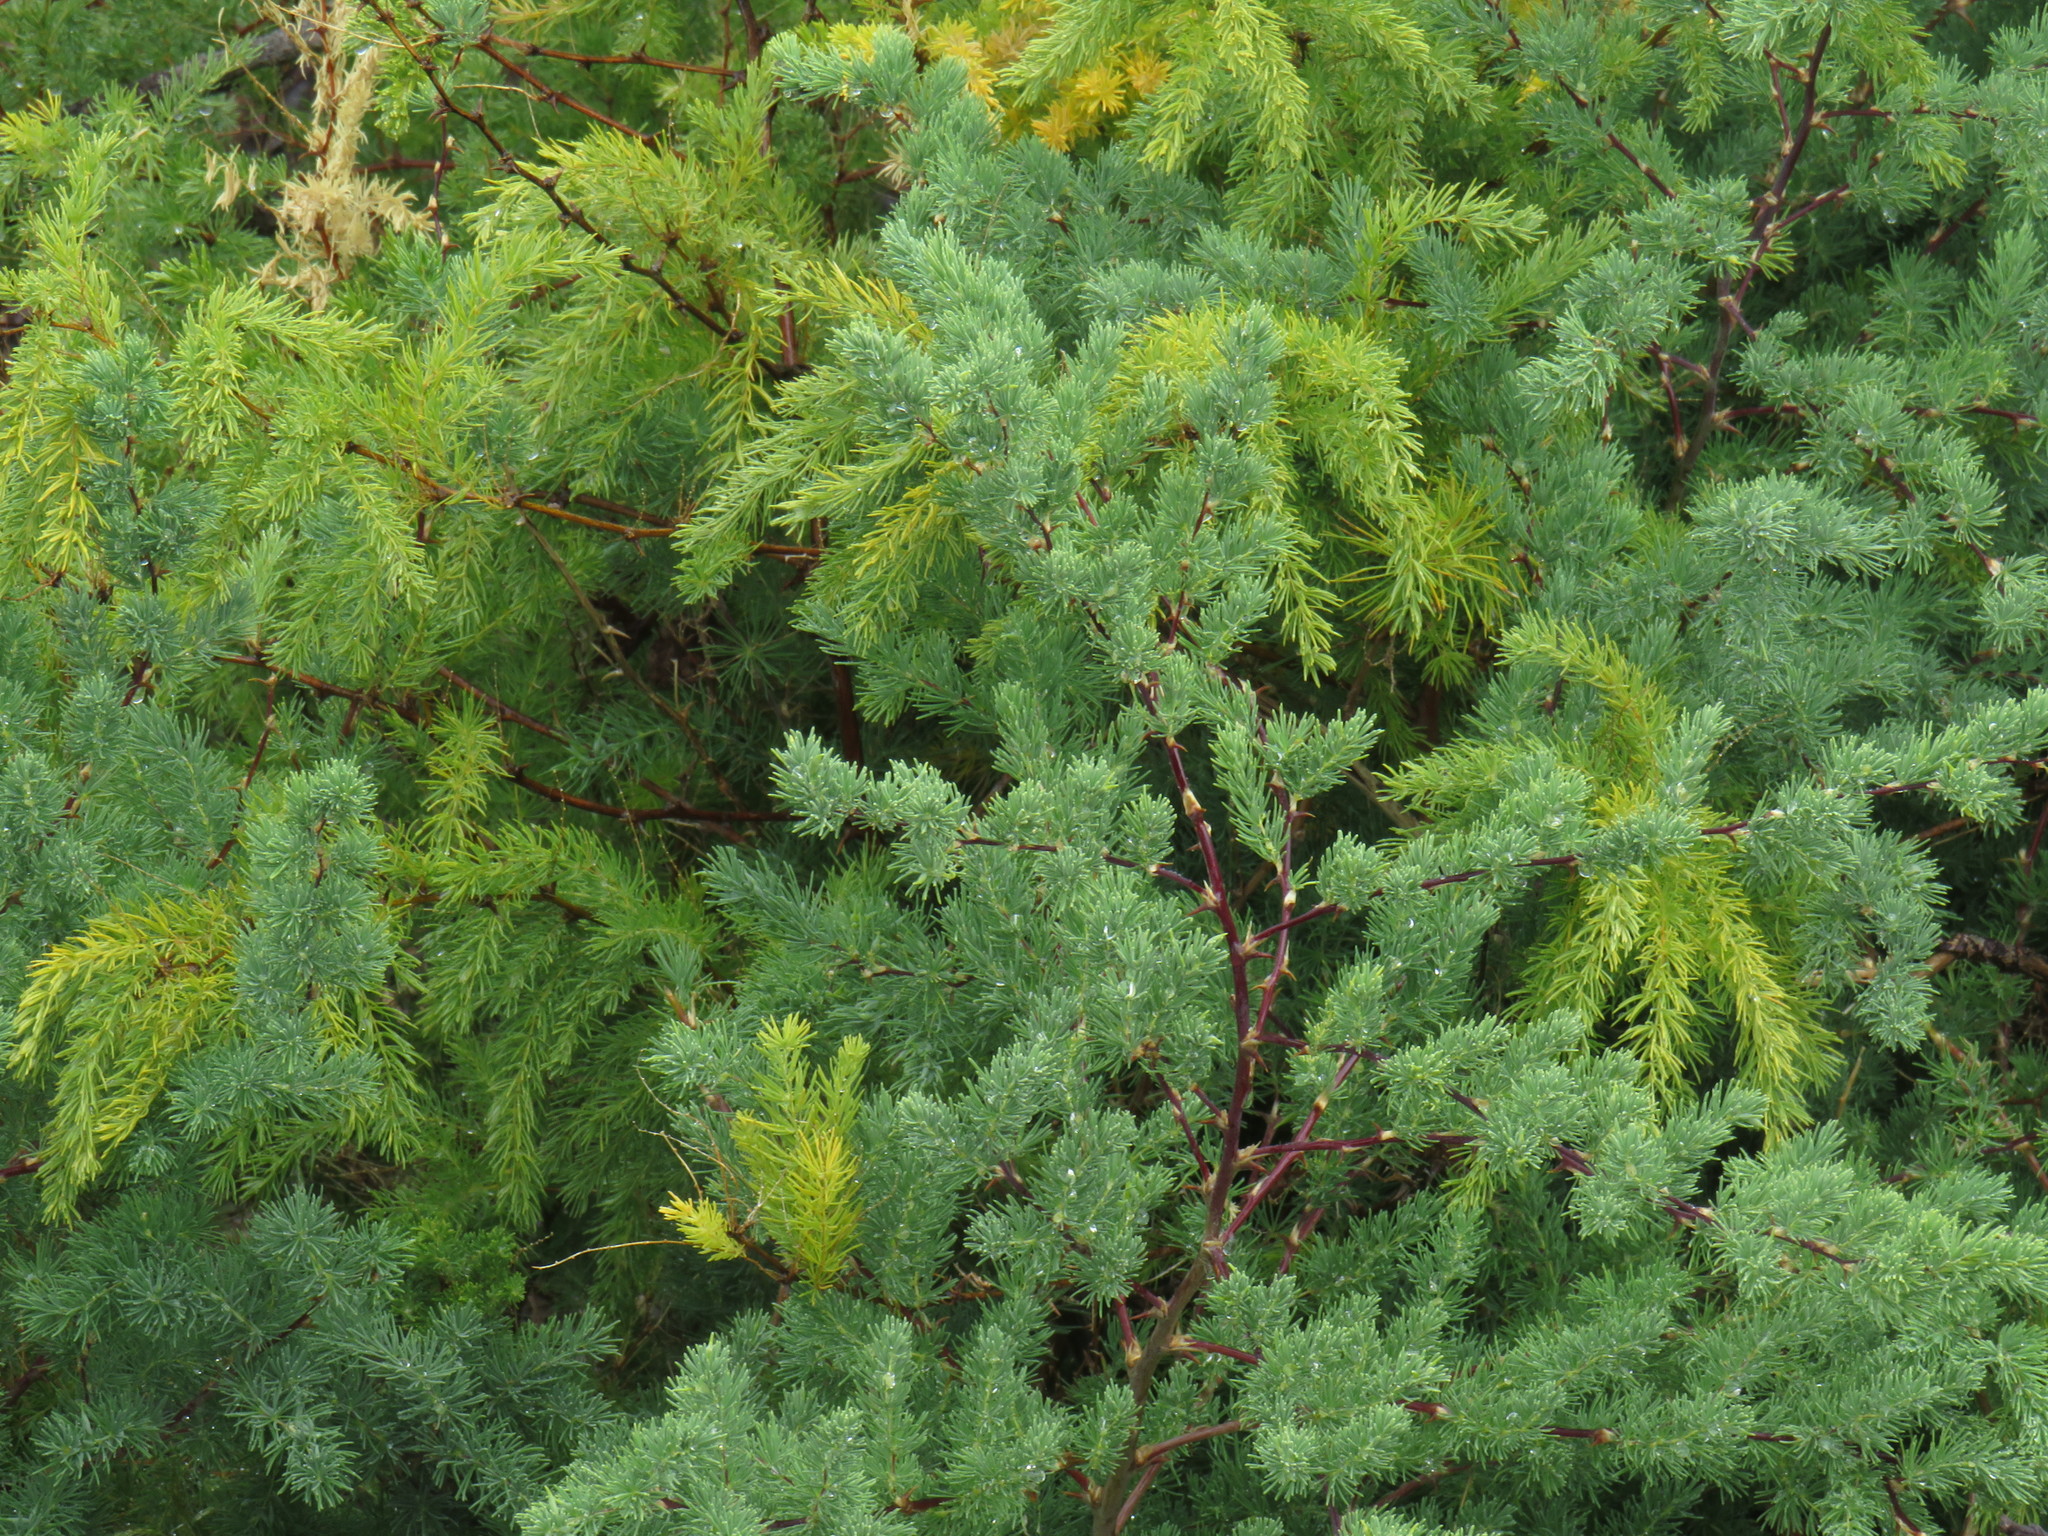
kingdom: Plantae
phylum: Tracheophyta
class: Liliopsida
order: Asparagales
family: Asparagaceae
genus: Asparagus
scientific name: Asparagus rubicundus
